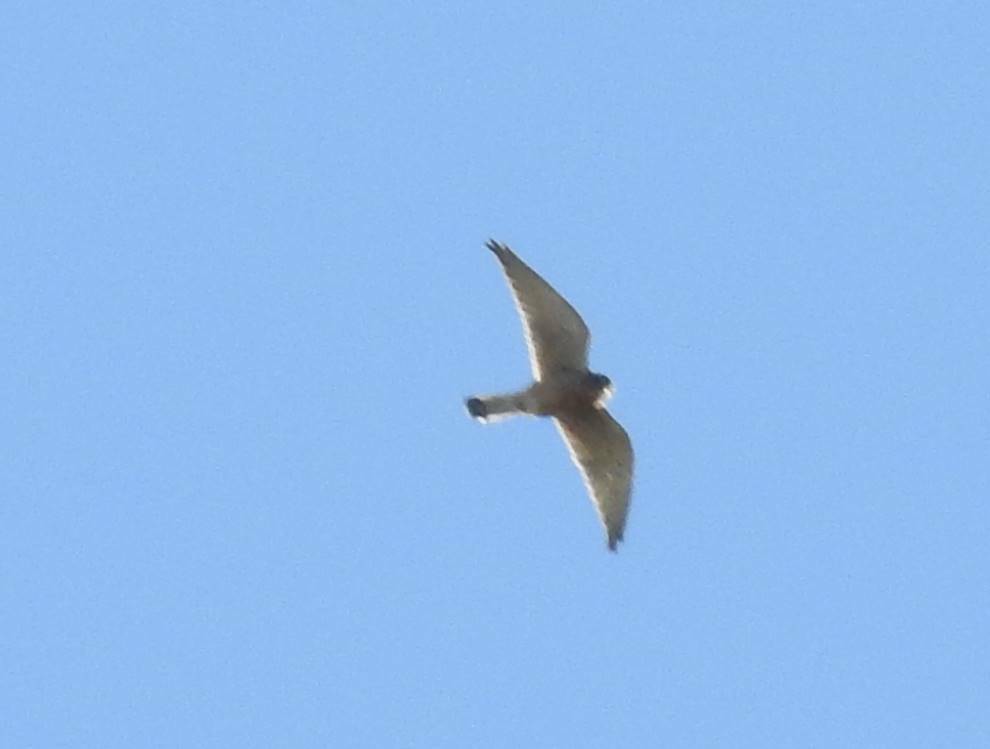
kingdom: Animalia
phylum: Chordata
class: Aves
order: Falconiformes
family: Falconidae
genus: Falco
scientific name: Falco tinnunculus
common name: Common kestrel
